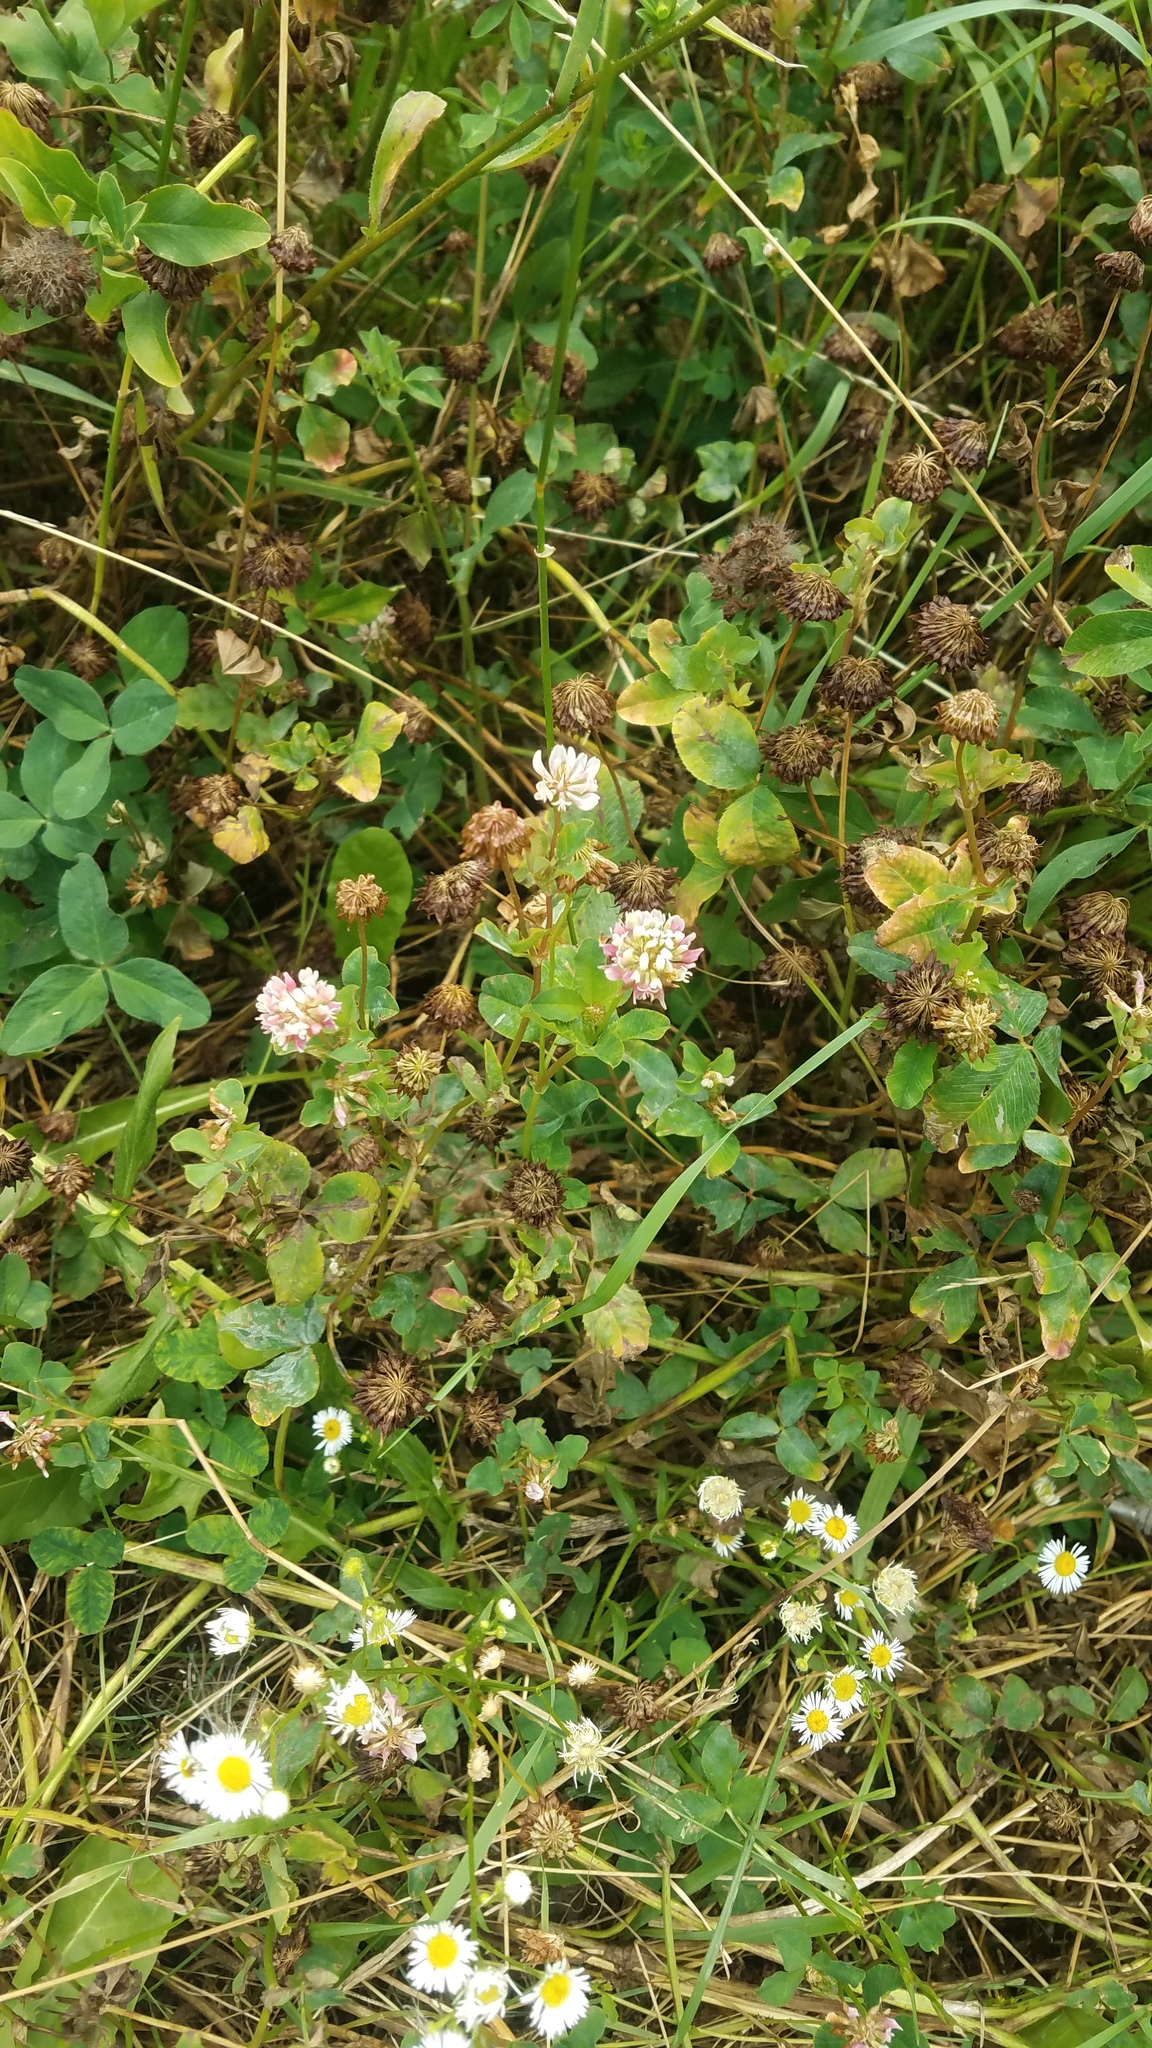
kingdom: Plantae
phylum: Tracheophyta
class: Magnoliopsida
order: Fabales
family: Fabaceae
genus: Trifolium
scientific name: Trifolium hybridum
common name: Alsike clover
